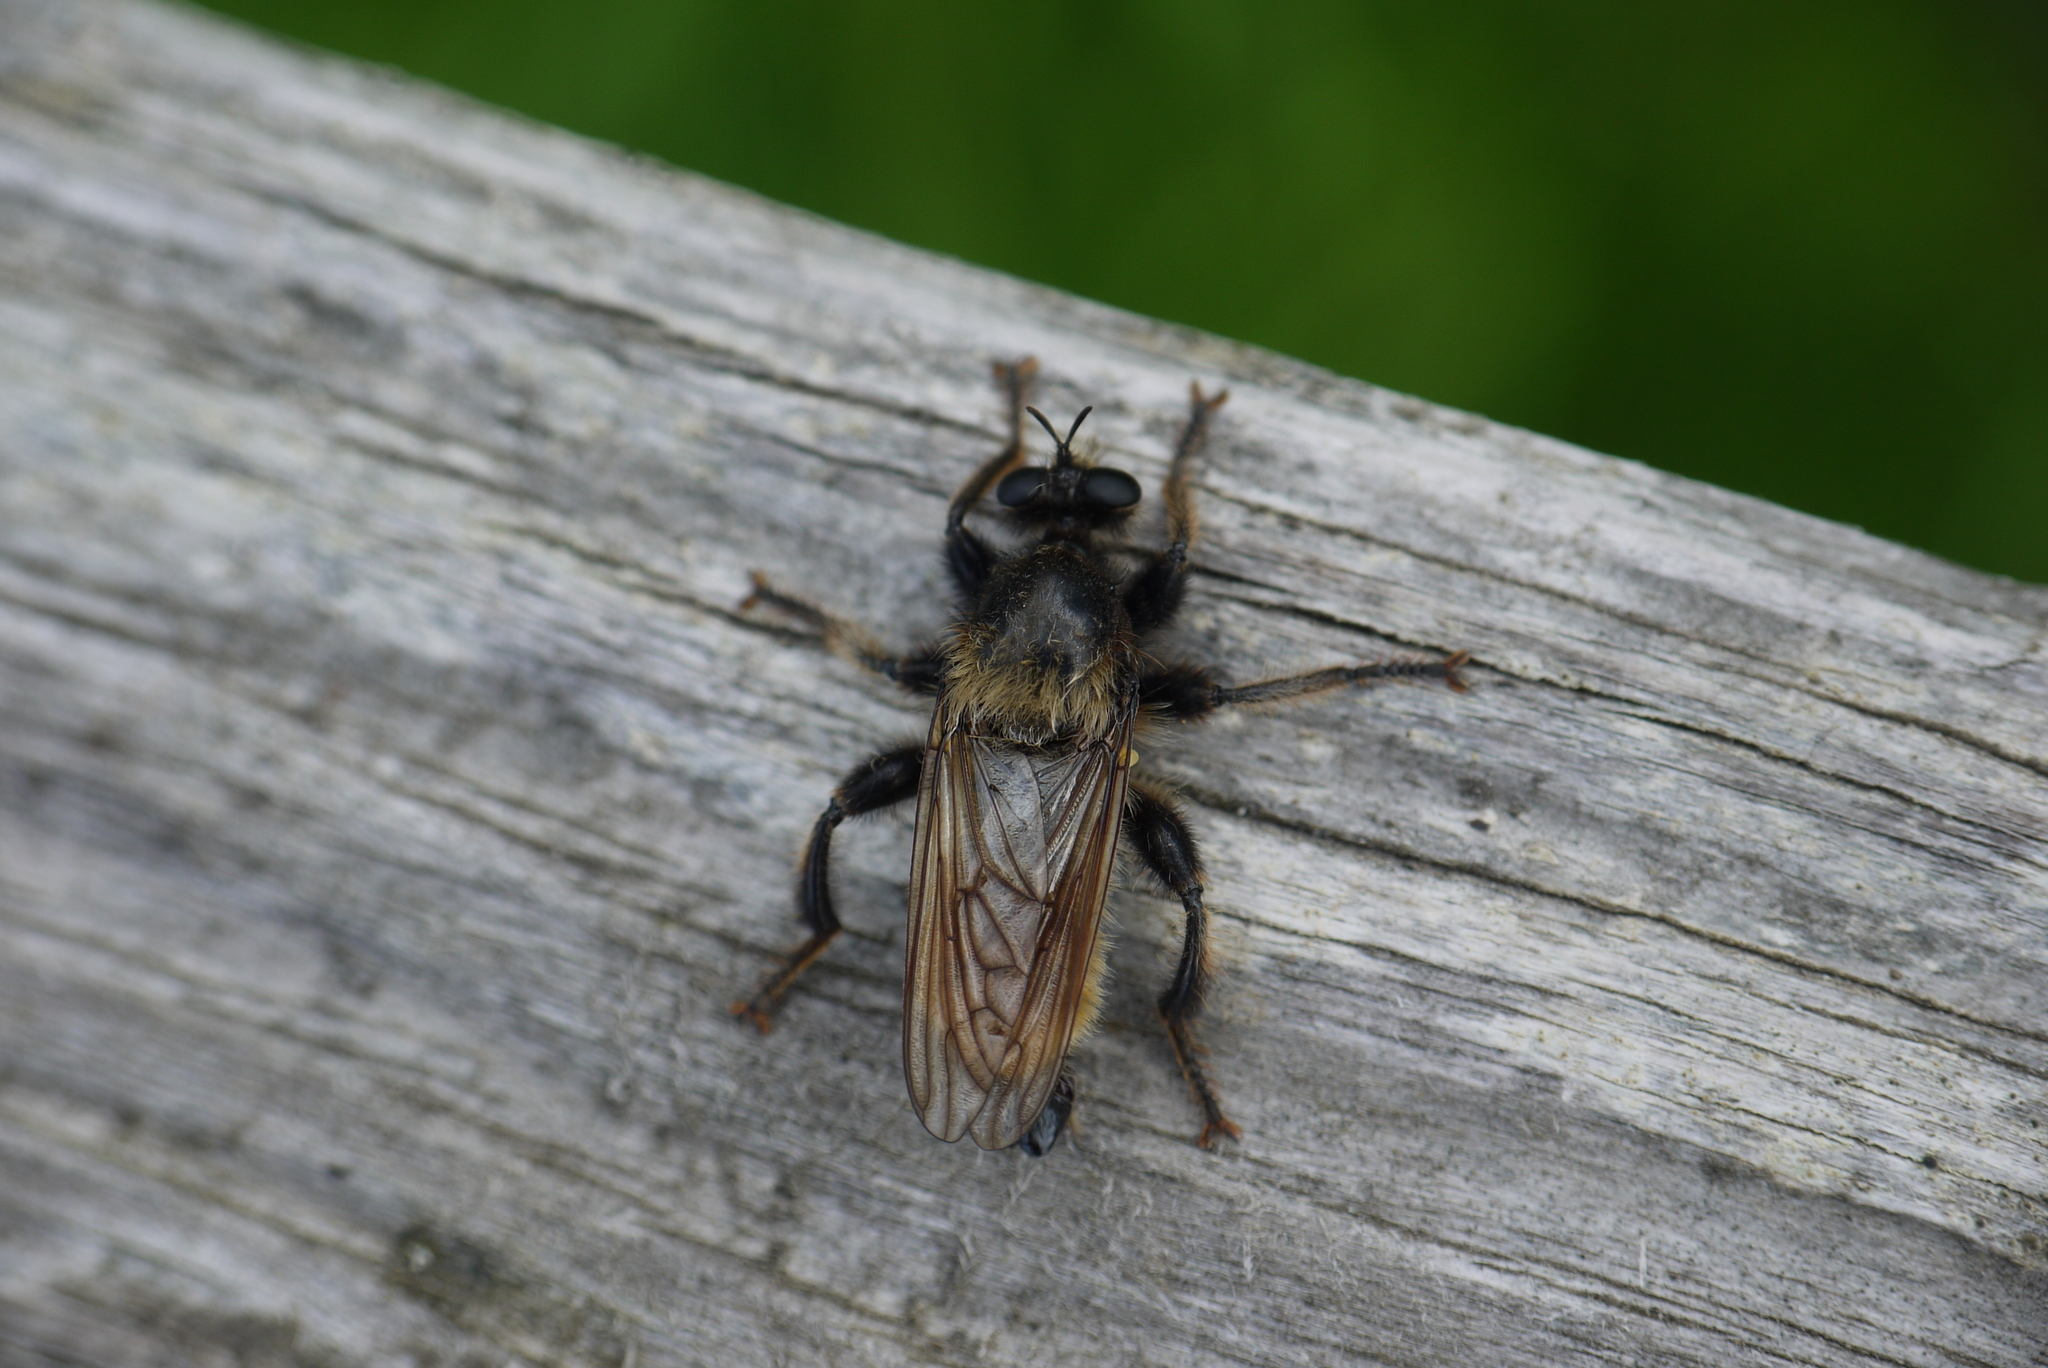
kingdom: Animalia
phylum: Arthropoda
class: Insecta
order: Diptera
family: Asilidae
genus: Laphria
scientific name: Laphria flava
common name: Bumblebee robberfly
